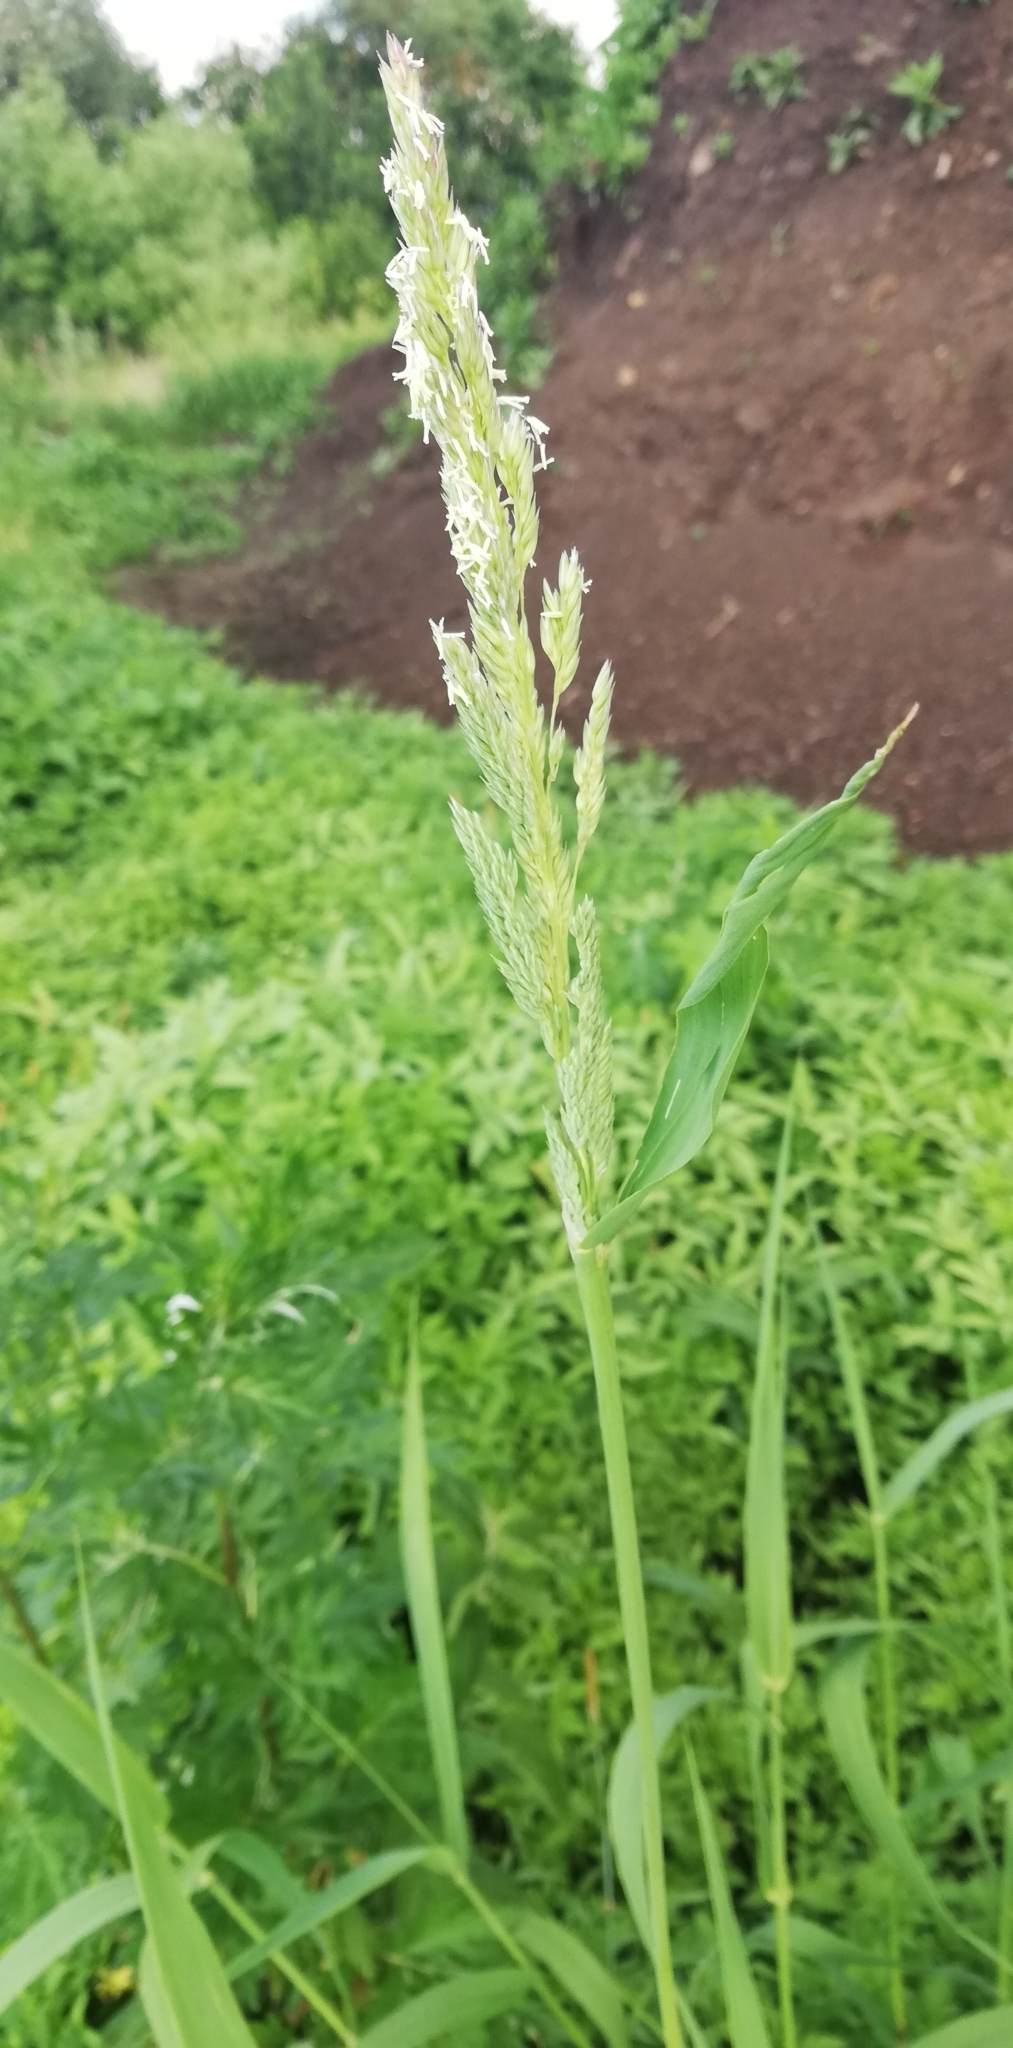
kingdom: Plantae
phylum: Tracheophyta
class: Liliopsida
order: Poales
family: Poaceae
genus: Phalaris
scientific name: Phalaris arundinacea
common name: Reed canary-grass
